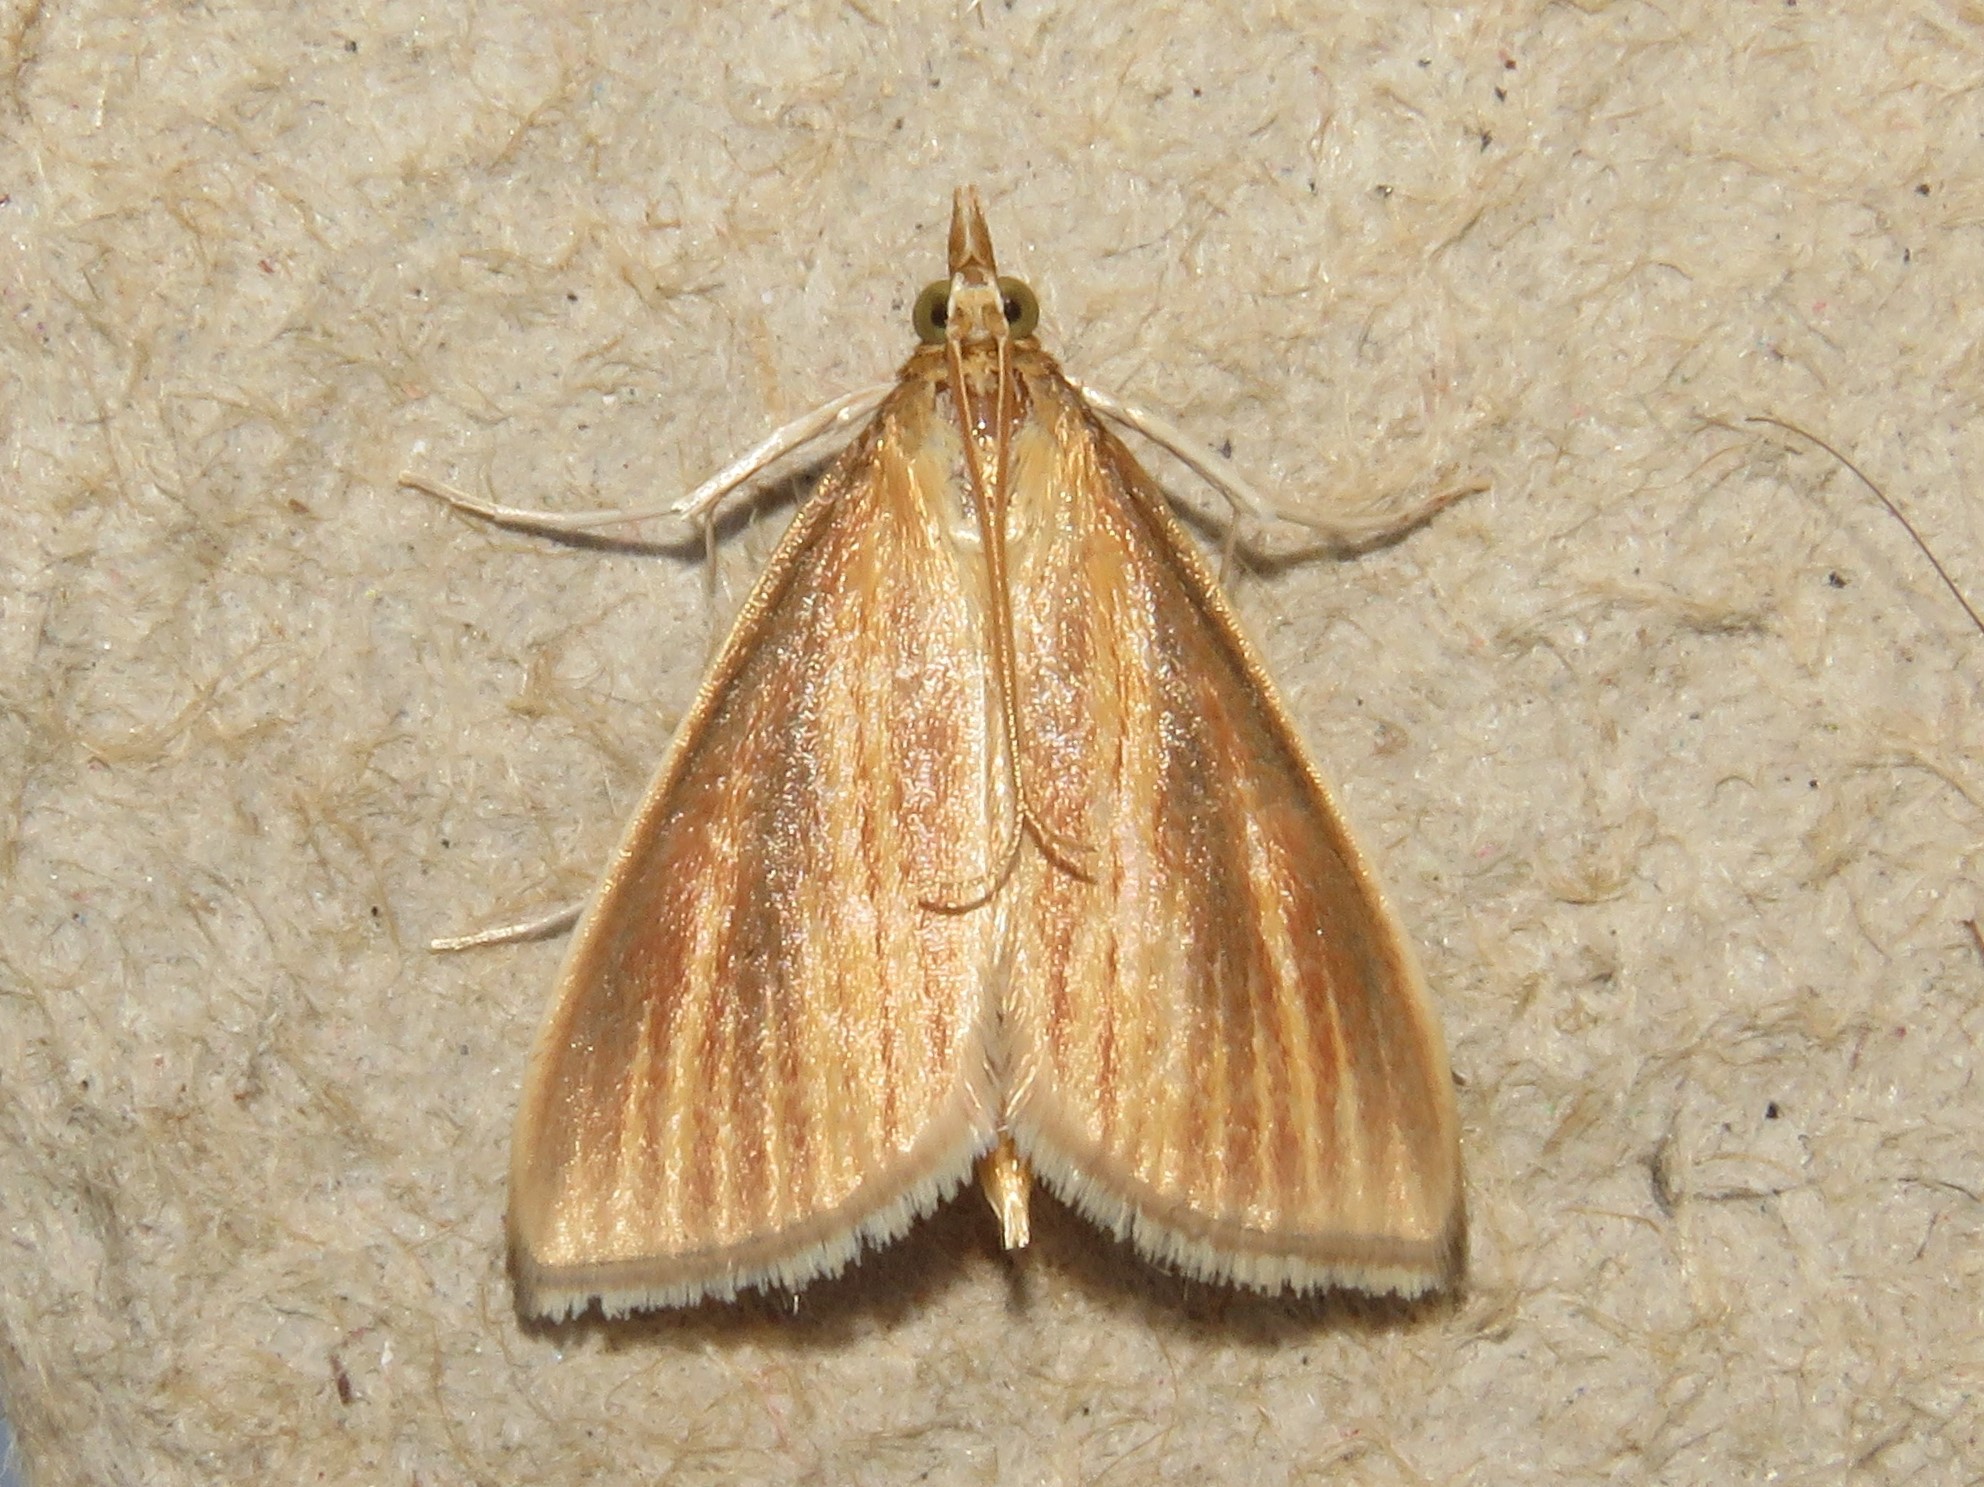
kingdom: Animalia
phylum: Arthropoda
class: Insecta
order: Lepidoptera
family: Crambidae
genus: Nascia
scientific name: Nascia acutellus
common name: Streaked orange moth
